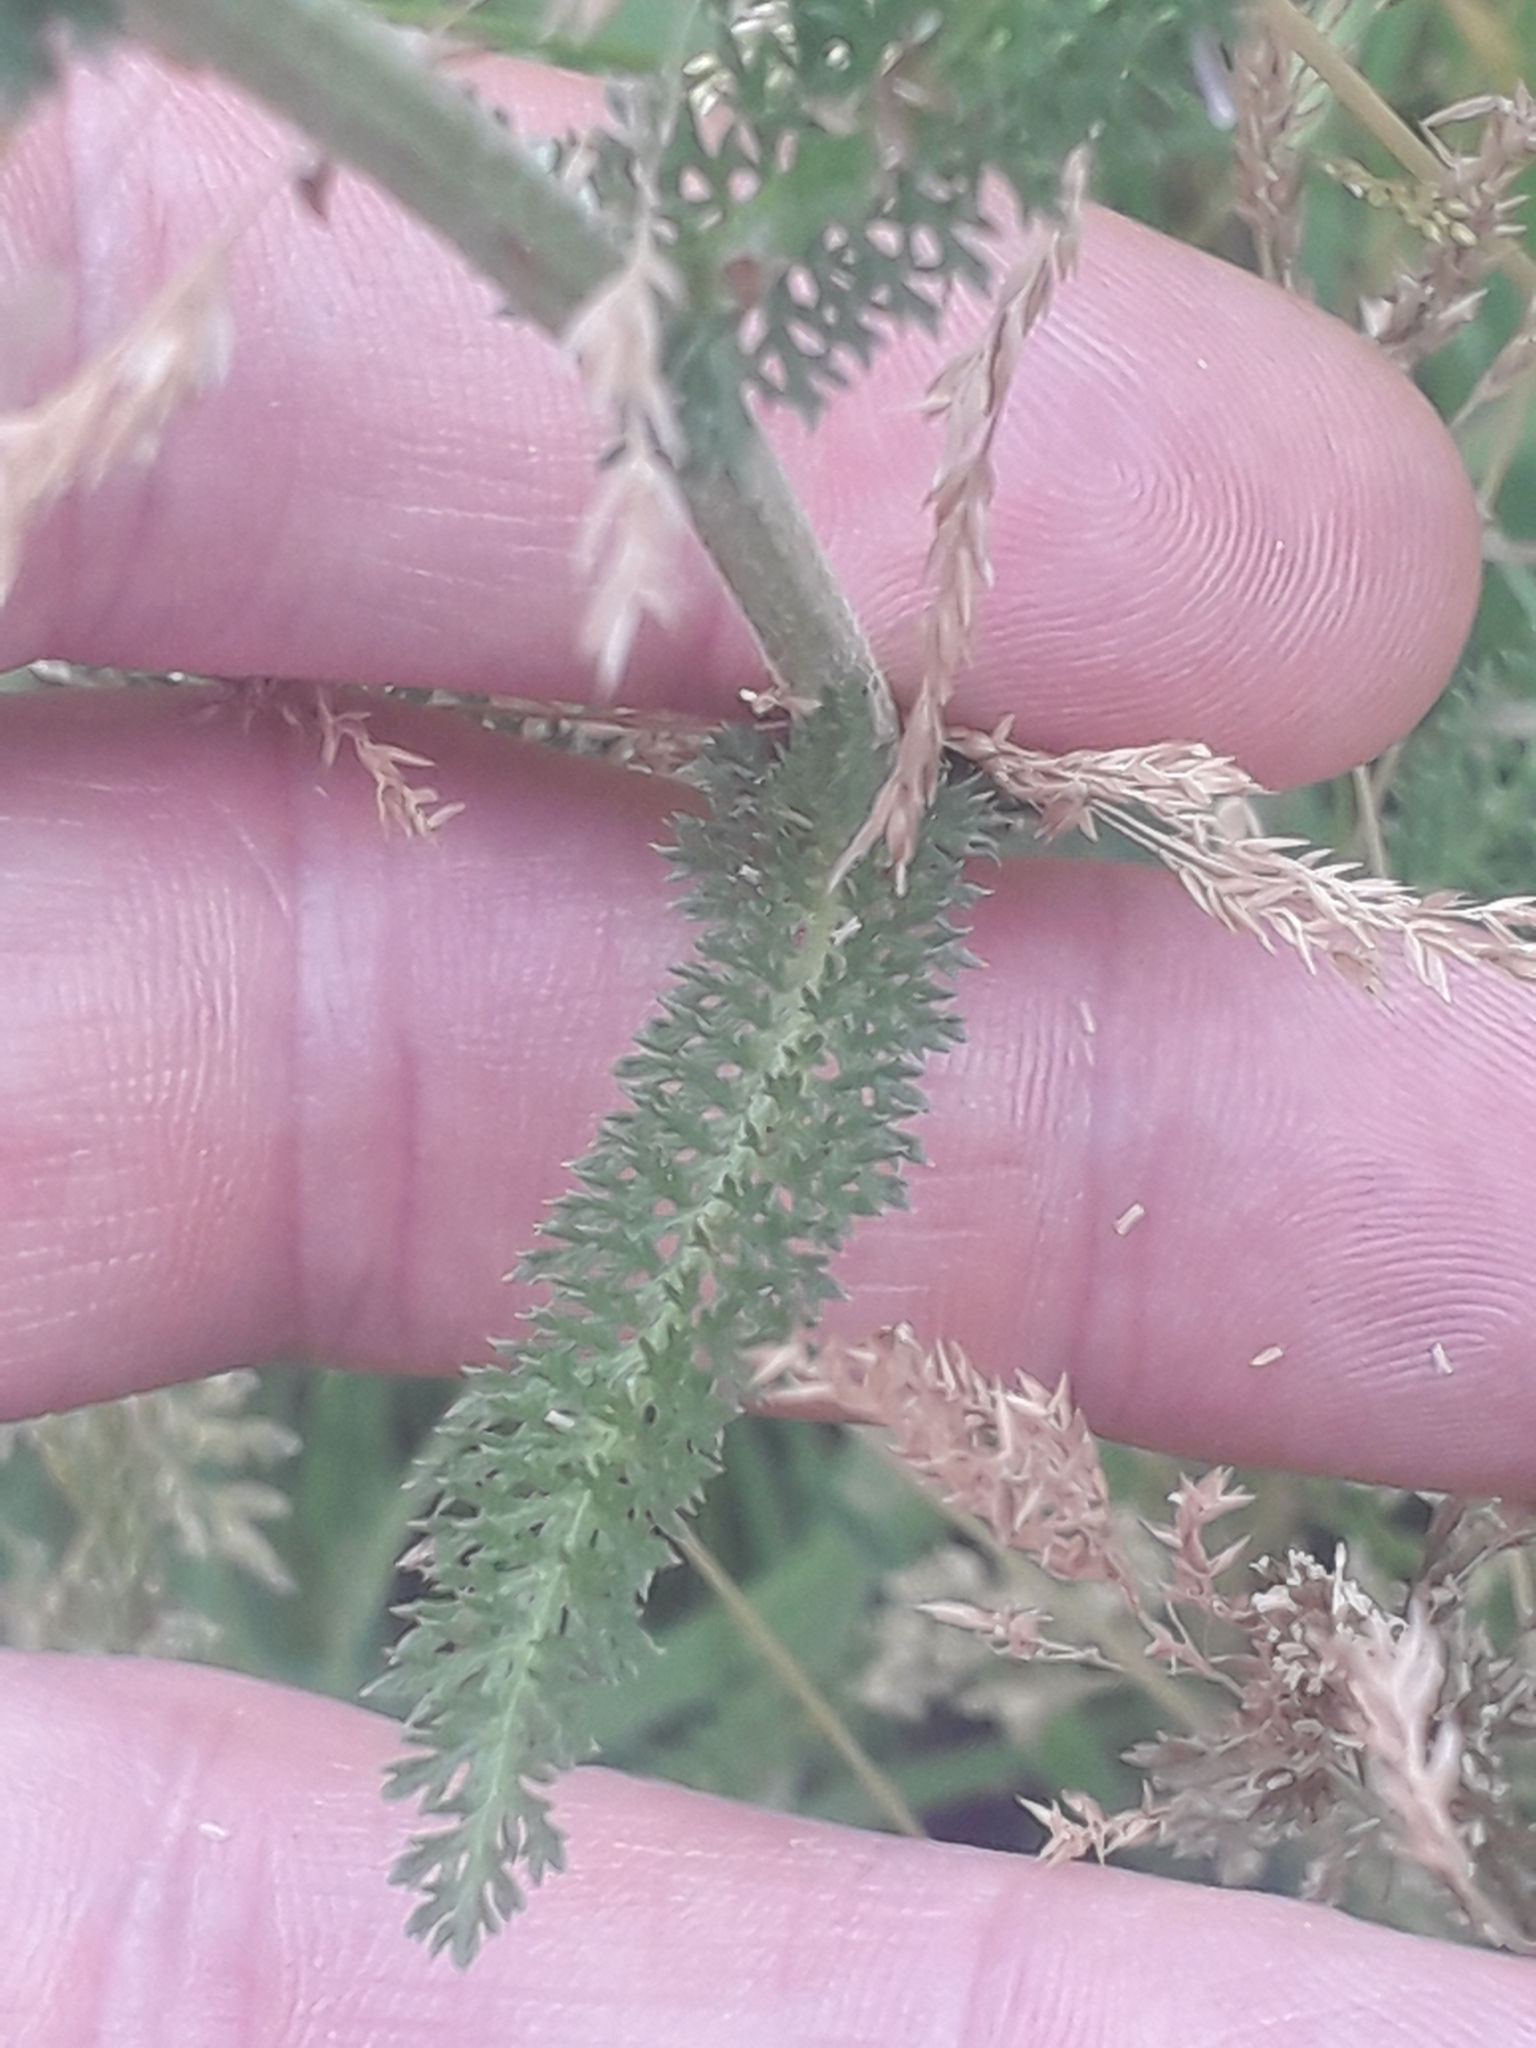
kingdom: Plantae
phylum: Tracheophyta
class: Magnoliopsida
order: Asterales
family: Asteraceae
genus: Achillea
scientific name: Achillea millefolium
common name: Yarrow
